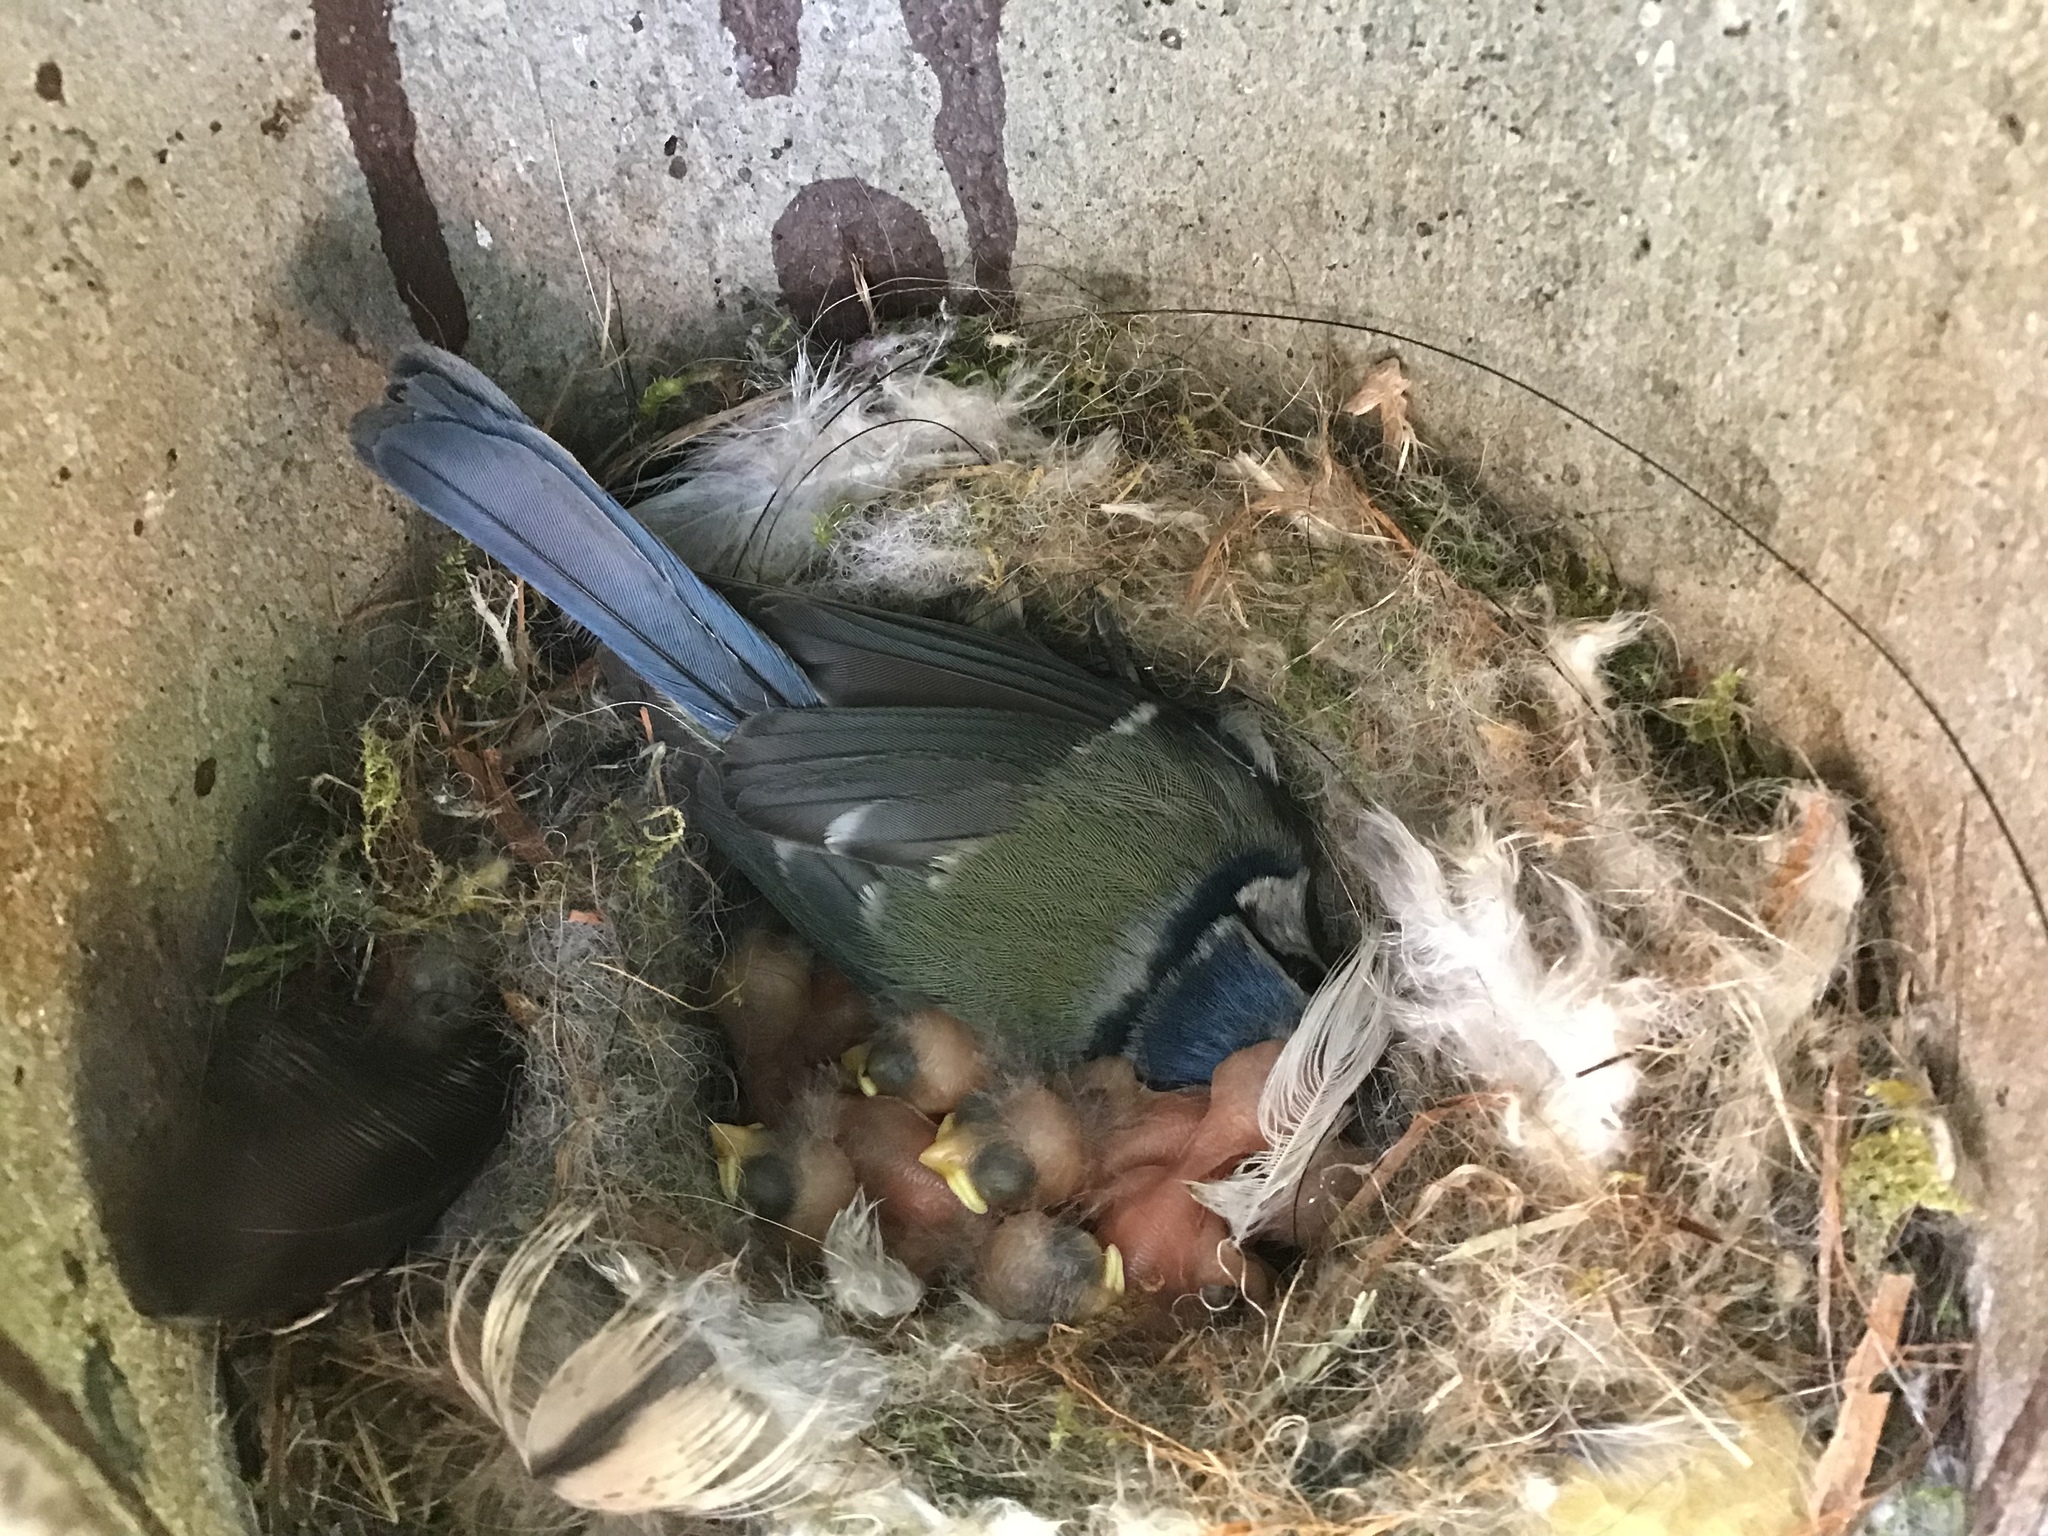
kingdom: Animalia
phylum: Chordata
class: Aves
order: Passeriformes
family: Paridae
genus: Cyanistes
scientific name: Cyanistes caeruleus
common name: Eurasian blue tit
